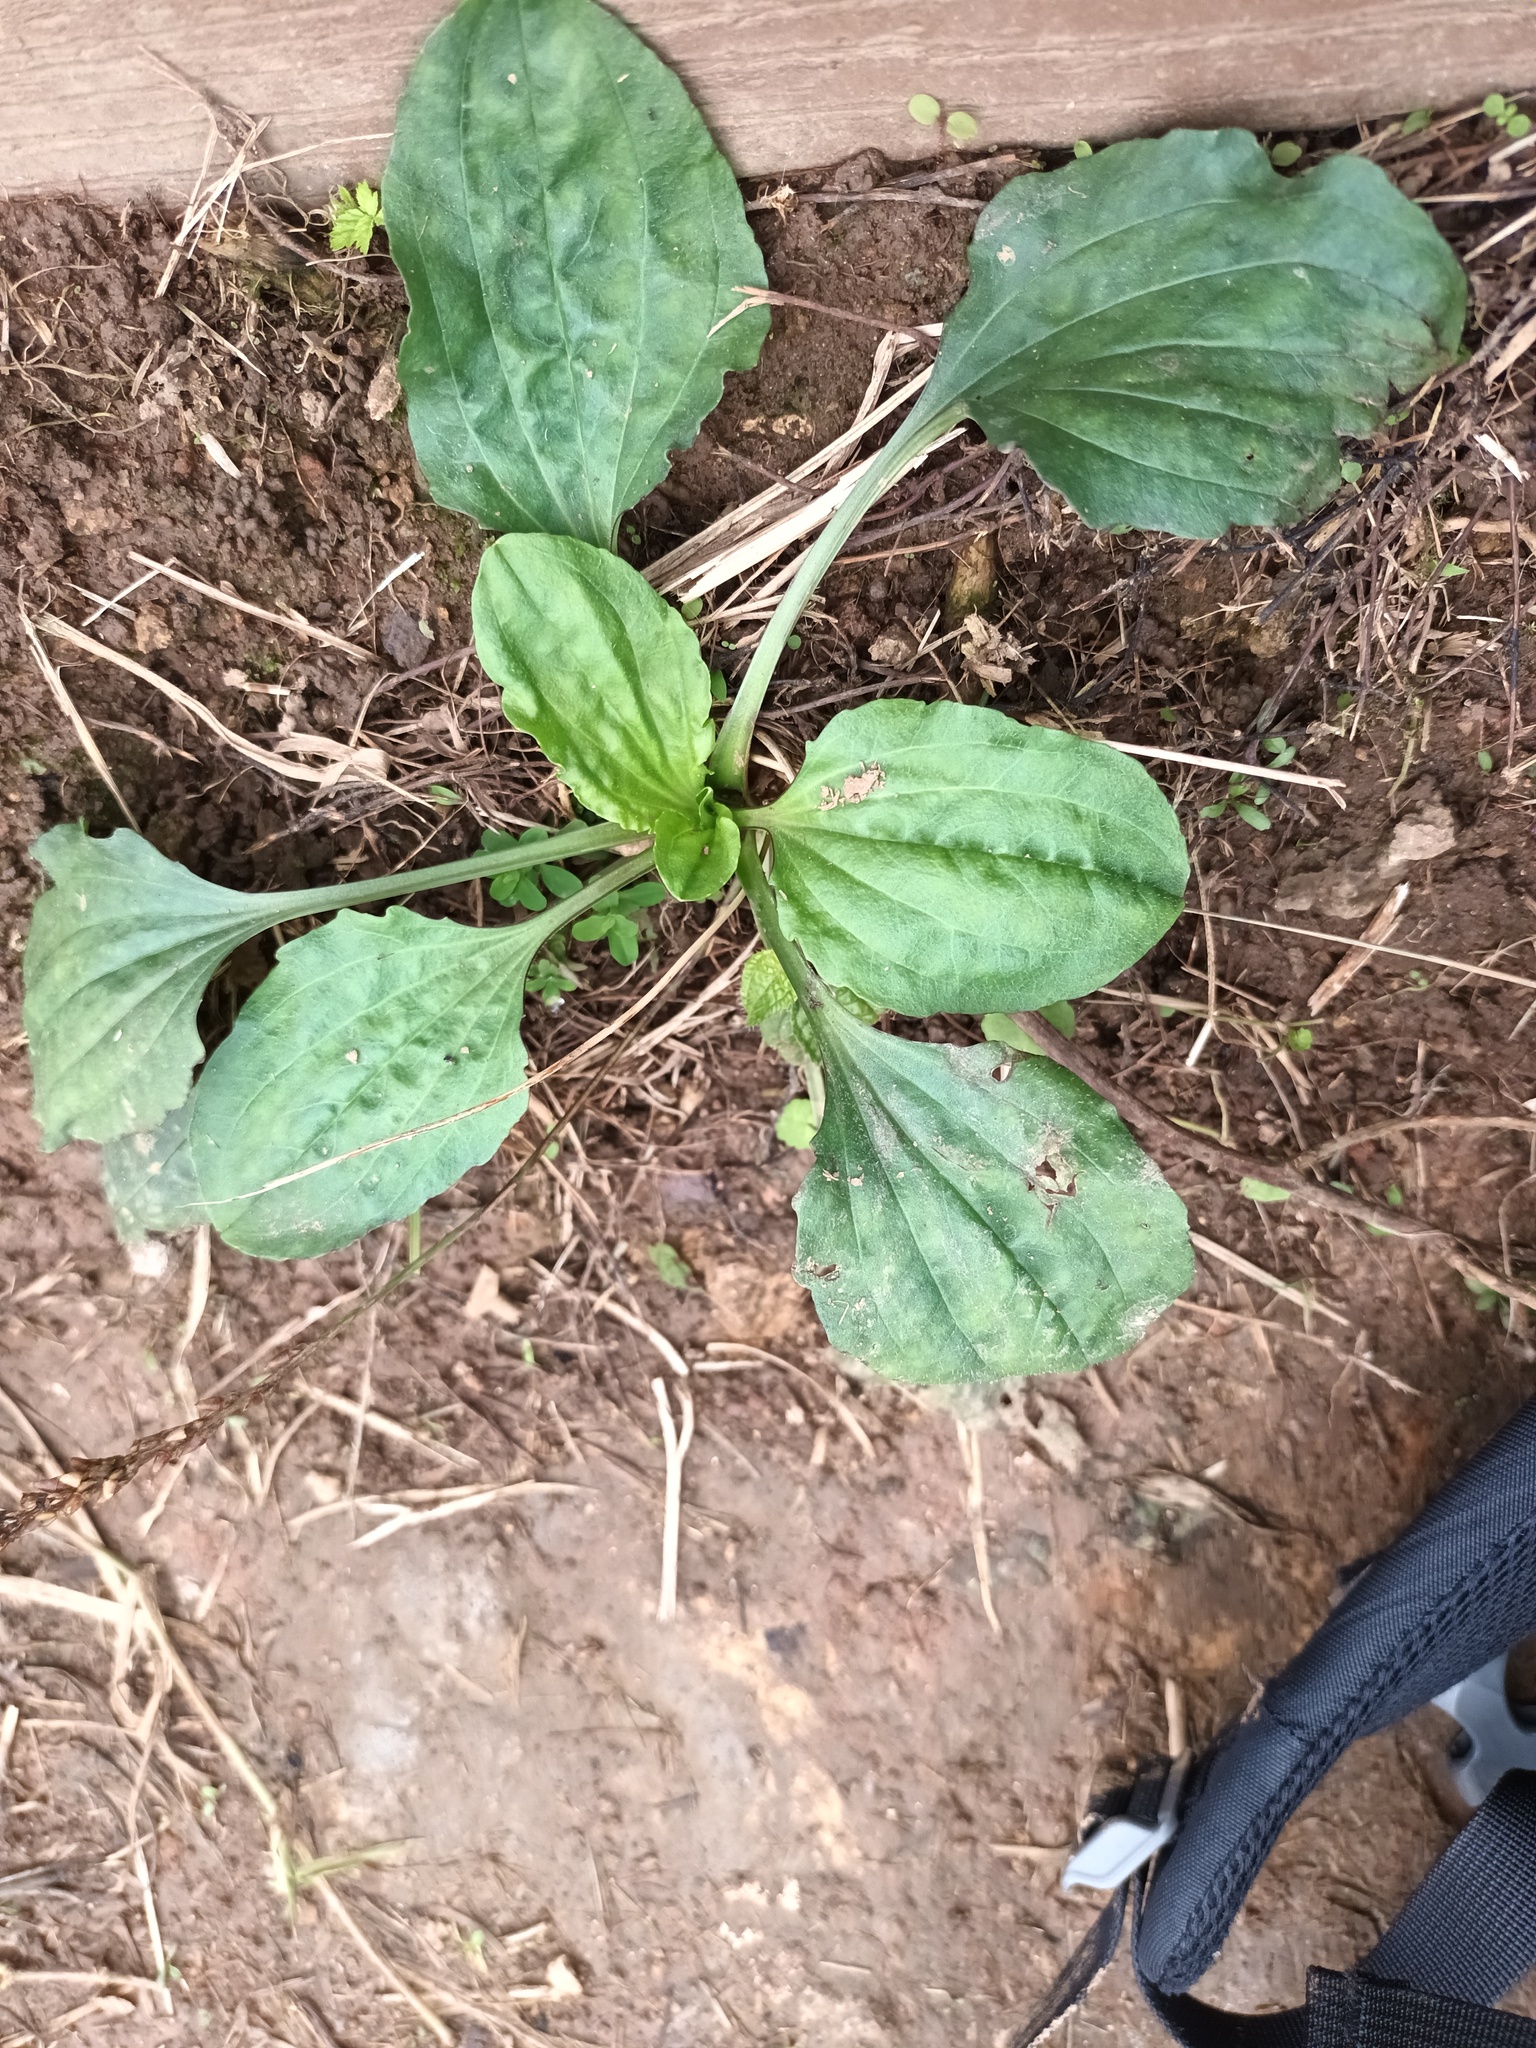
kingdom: Plantae
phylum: Tracheophyta
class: Magnoliopsida
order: Lamiales
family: Plantaginaceae
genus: Plantago
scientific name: Plantago major
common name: Common plantain
